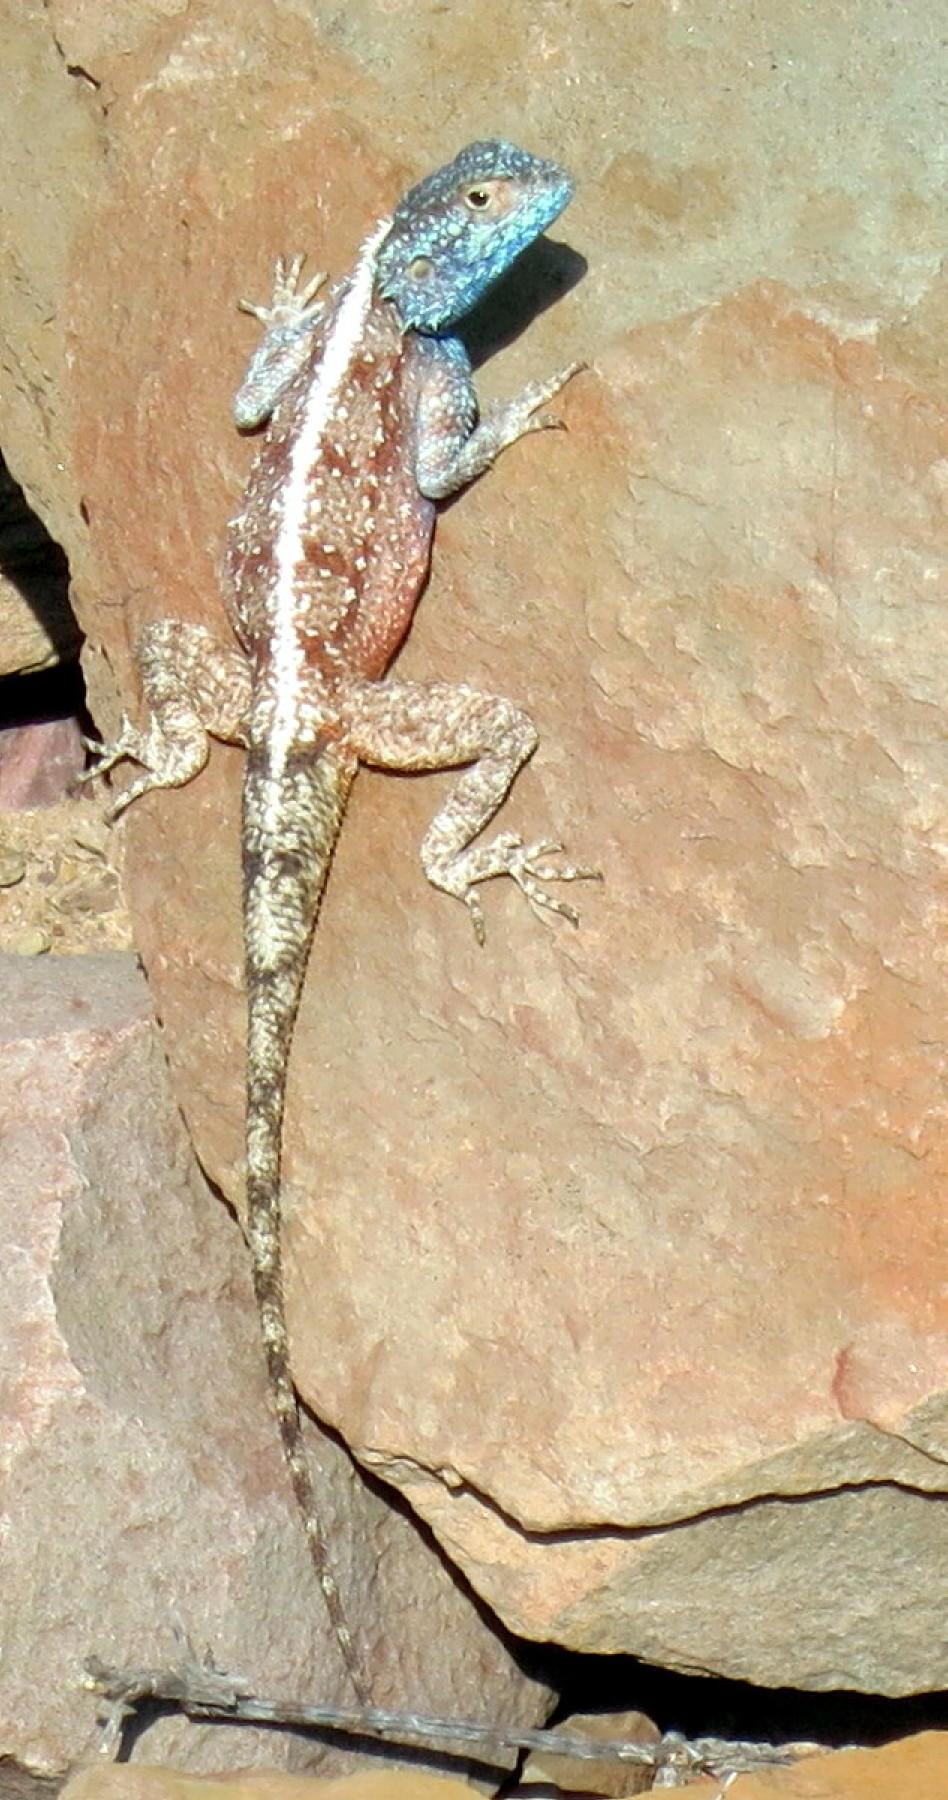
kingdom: Animalia
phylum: Chordata
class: Squamata
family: Agamidae
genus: Agama
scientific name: Agama atra
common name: Southern african rock agama
